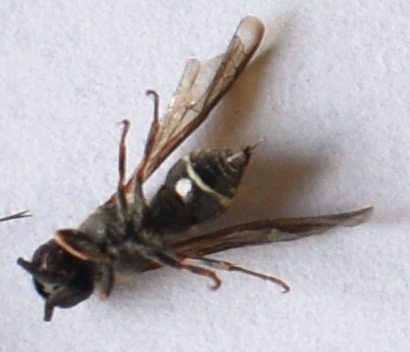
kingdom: Animalia
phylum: Arthropoda
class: Insecta
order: Hymenoptera
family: Eumenidae
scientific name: Eumenidae
